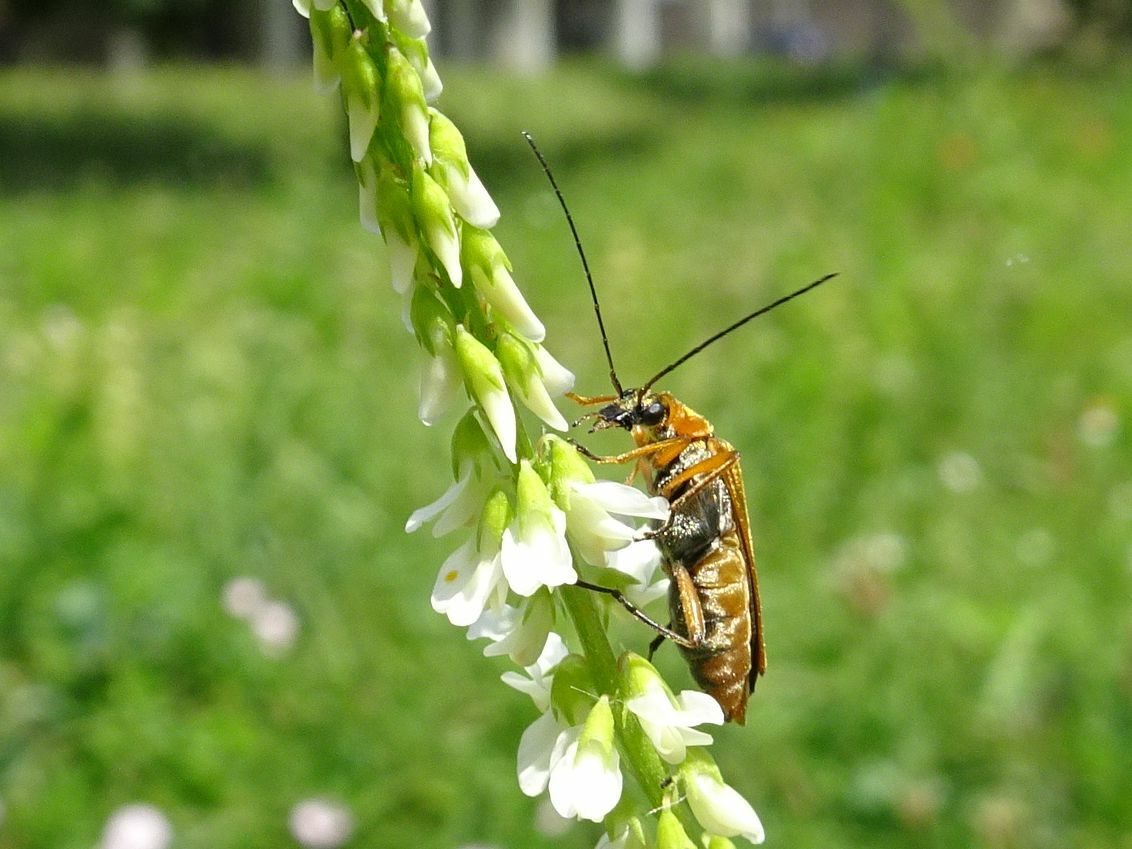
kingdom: Animalia
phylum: Arthropoda
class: Insecta
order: Coleoptera
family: Oedemeridae
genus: Oedemera
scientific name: Oedemera podagrariae
